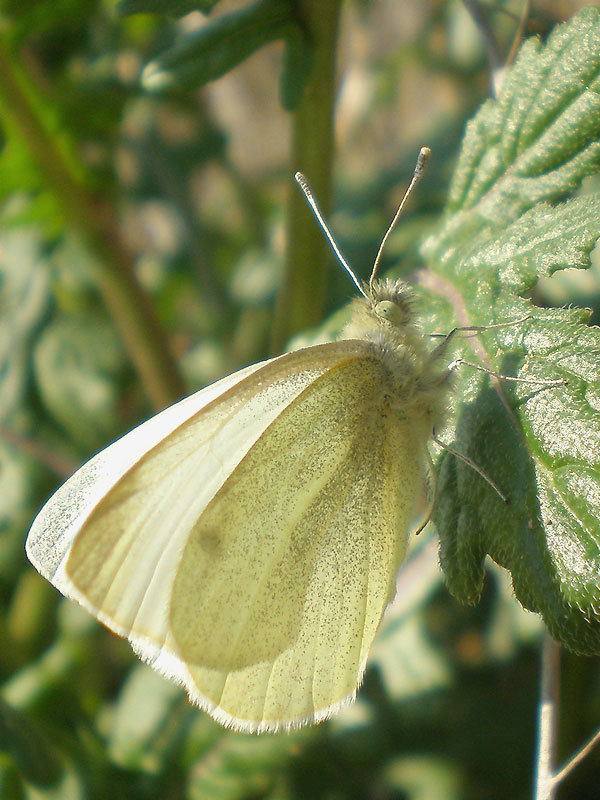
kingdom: Animalia
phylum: Arthropoda
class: Insecta
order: Lepidoptera
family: Pieridae
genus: Pieris
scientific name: Pieris rapae
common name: Small white
